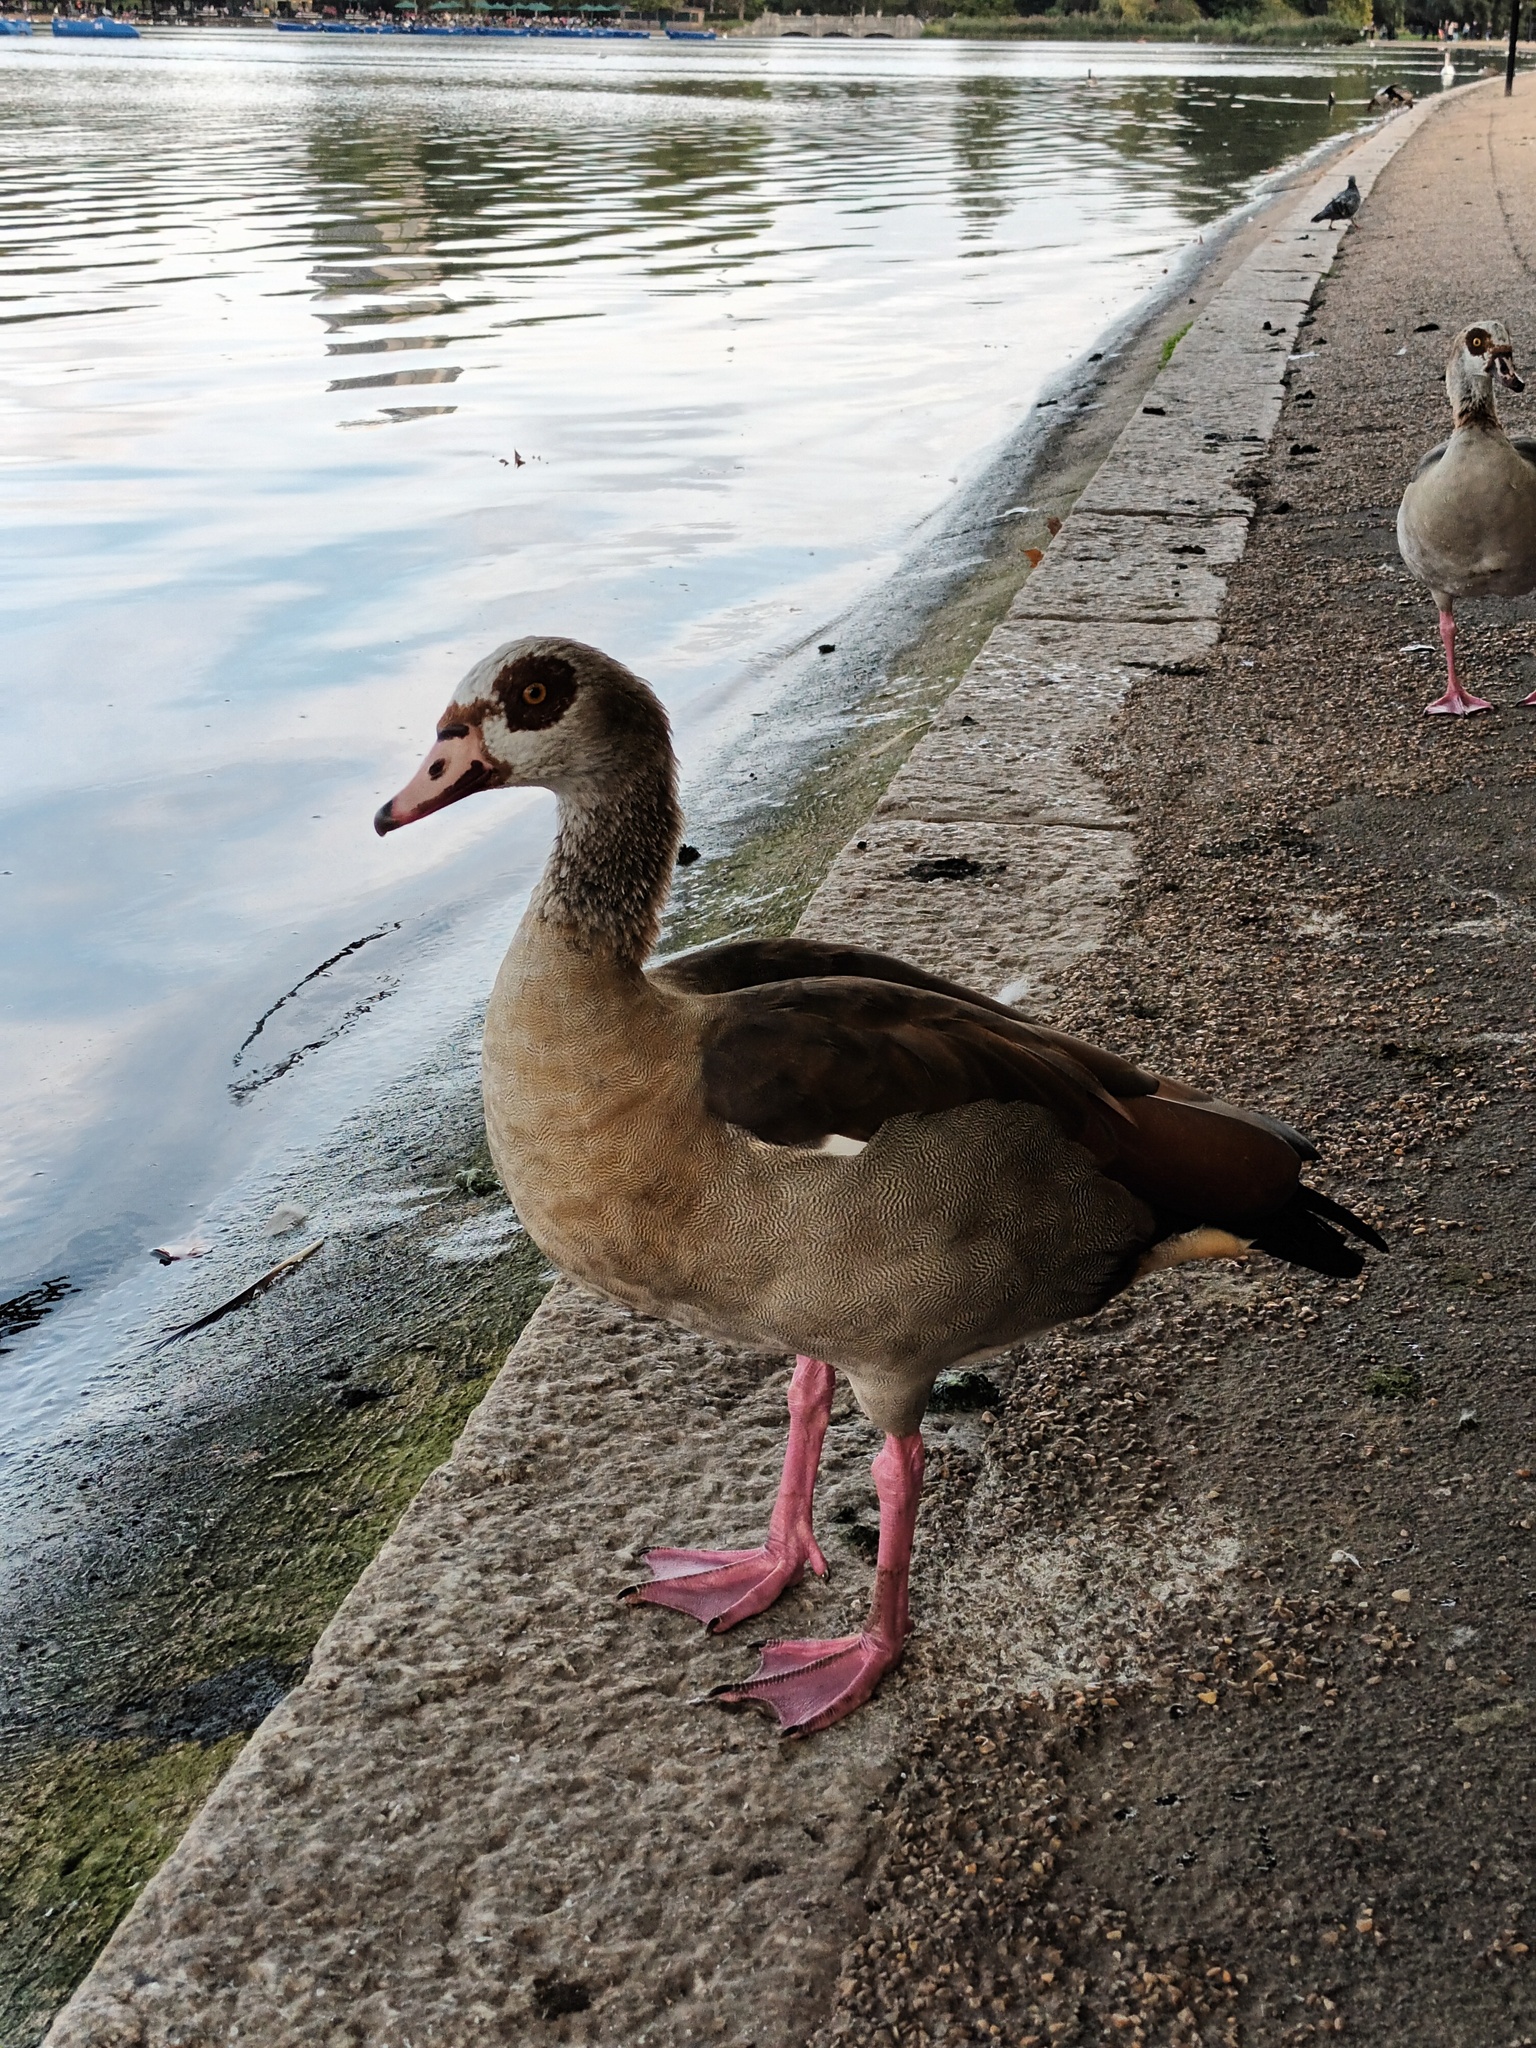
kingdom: Animalia
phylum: Chordata
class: Aves
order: Anseriformes
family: Anatidae
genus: Alopochen
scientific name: Alopochen aegyptiaca
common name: Egyptian goose
